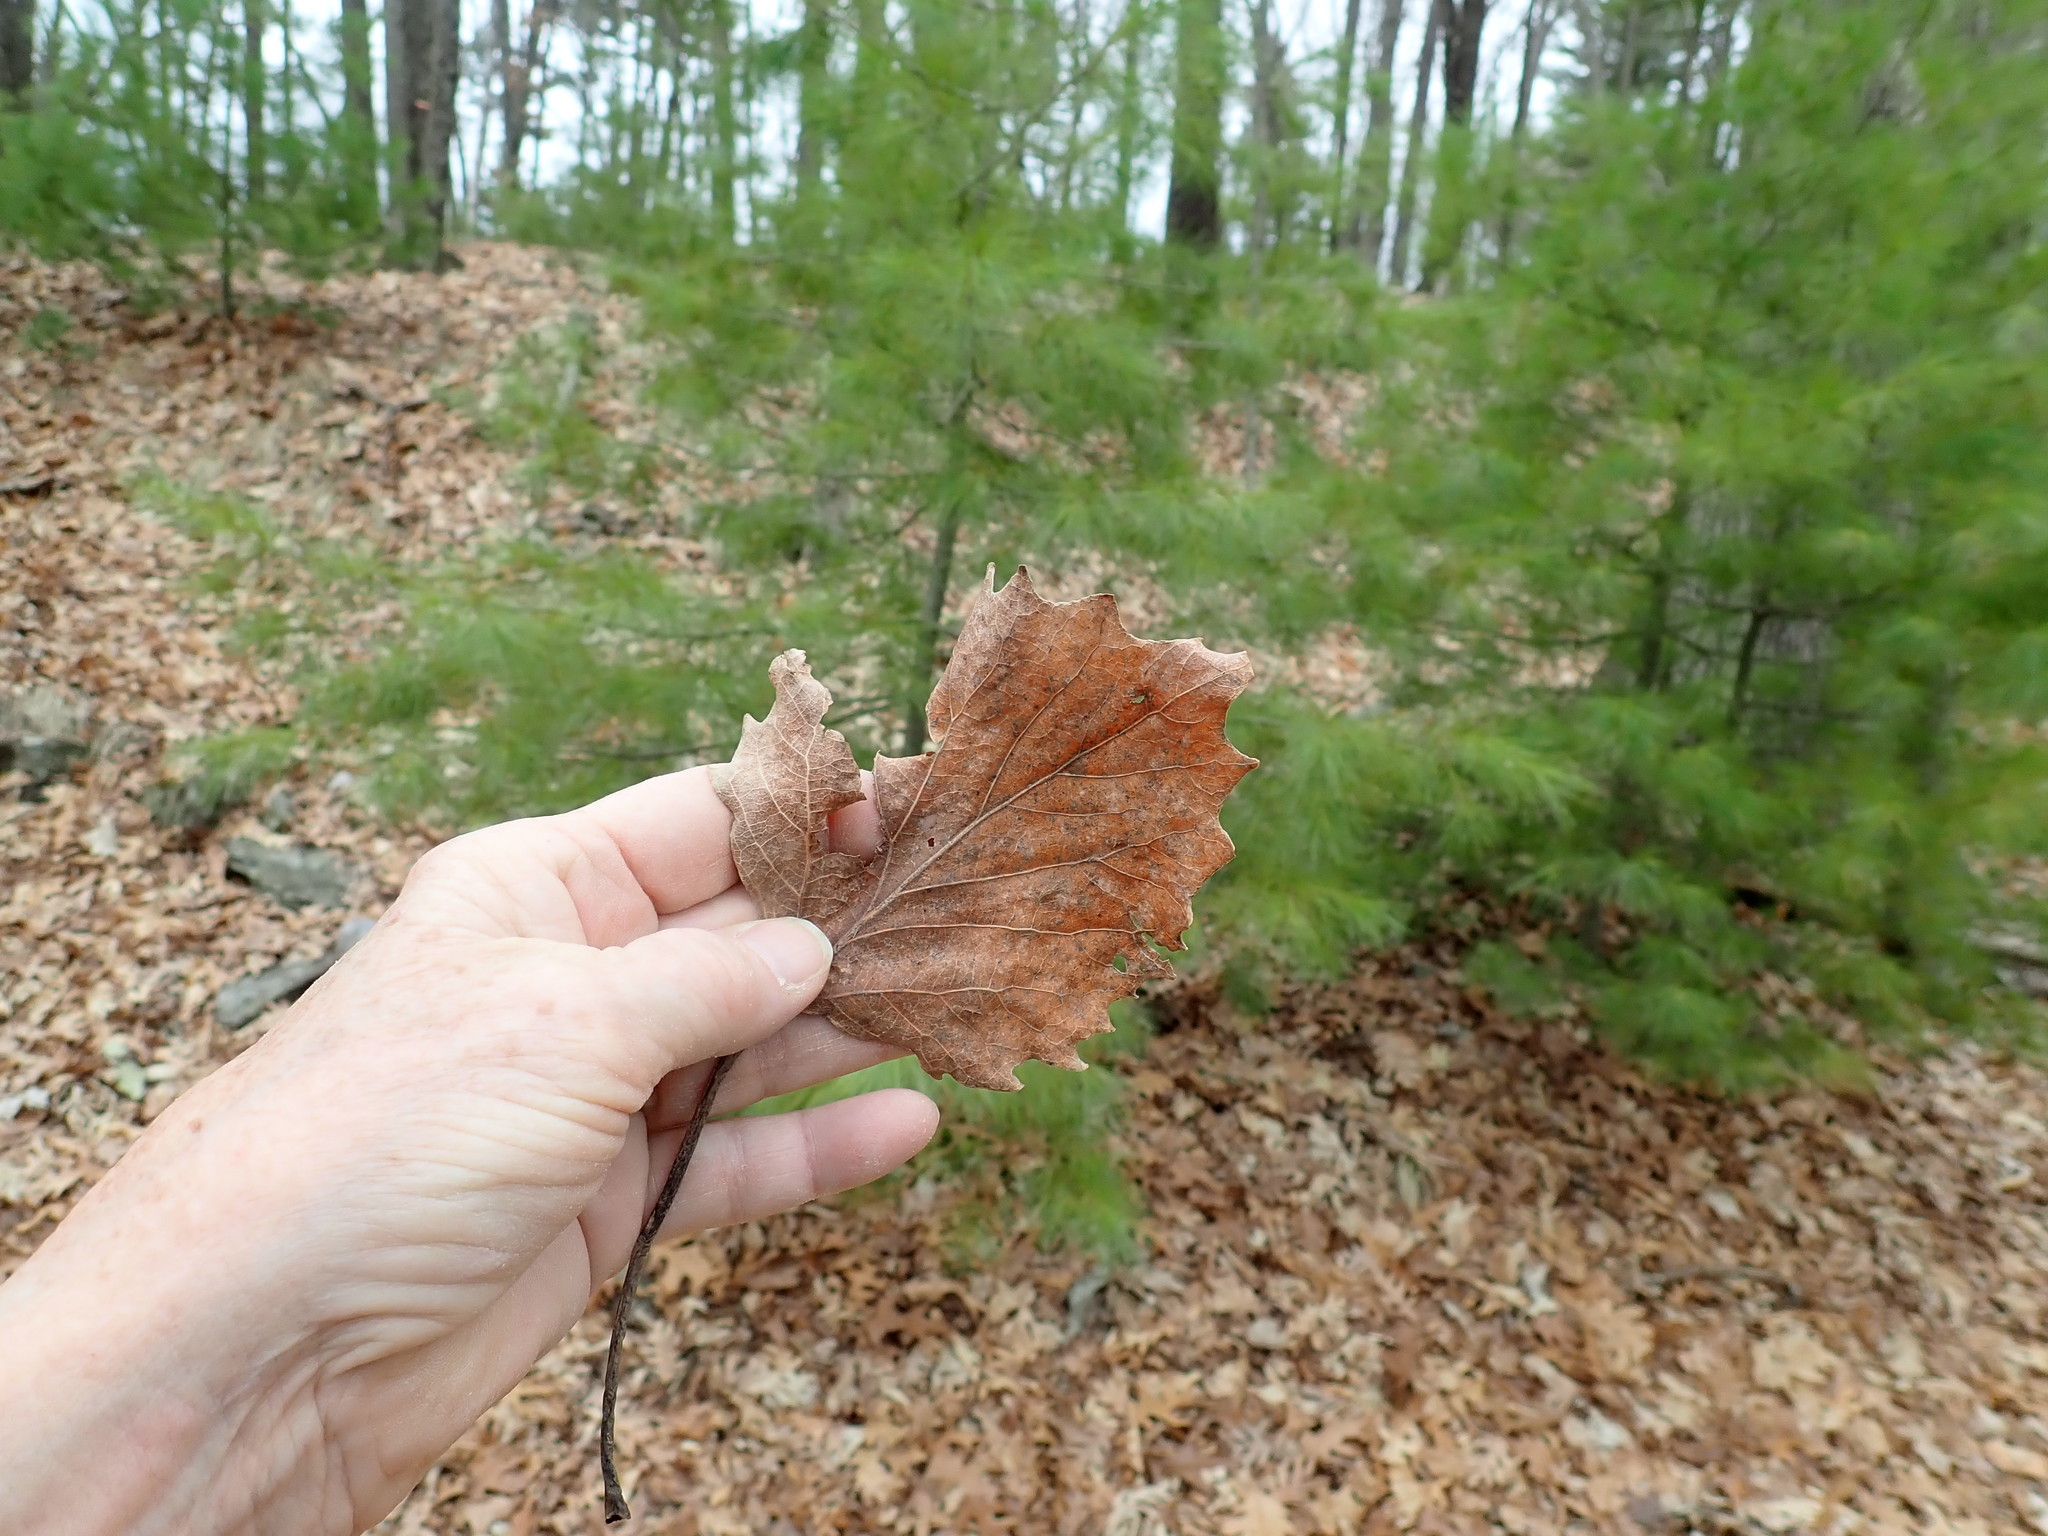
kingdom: Plantae
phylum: Tracheophyta
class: Magnoliopsida
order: Malpighiales
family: Salicaceae
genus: Populus
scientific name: Populus grandidentata
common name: Bigtooth aspen
